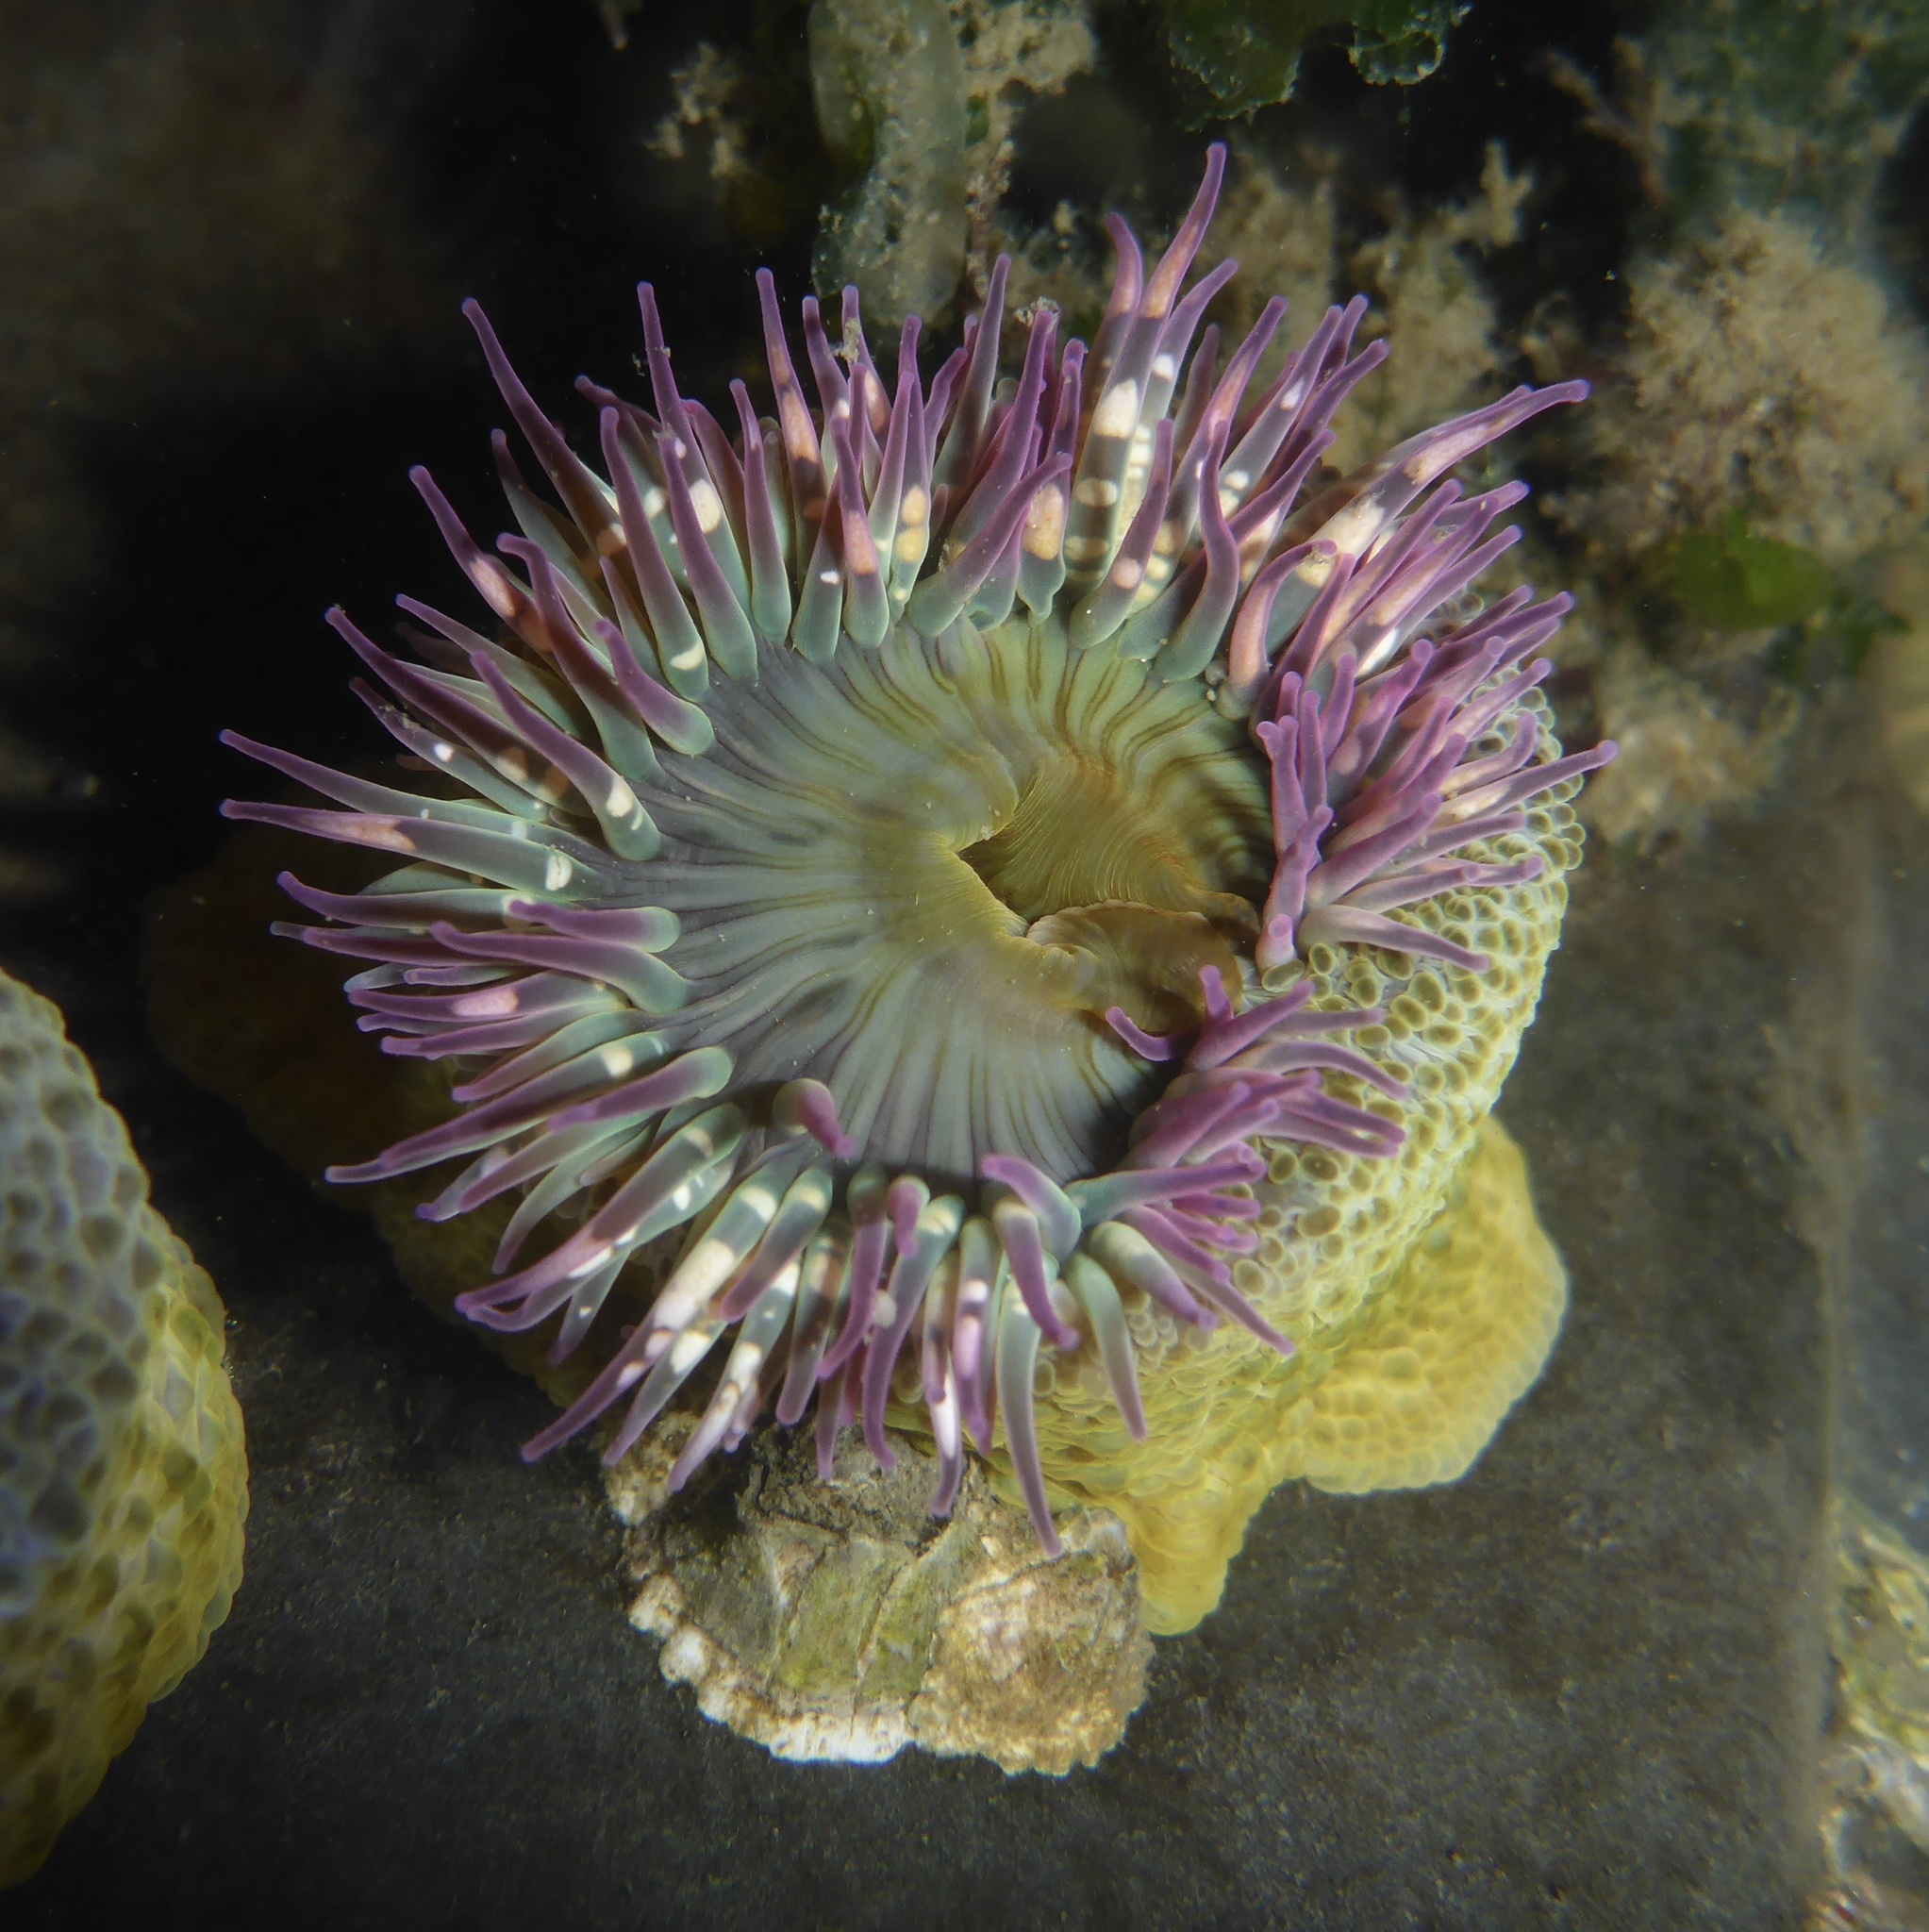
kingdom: Animalia
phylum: Cnidaria
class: Anthozoa
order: Actiniaria
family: Actiniidae
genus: Anthopleura
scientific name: Anthopleura elegantissima
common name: Clonal anemone
